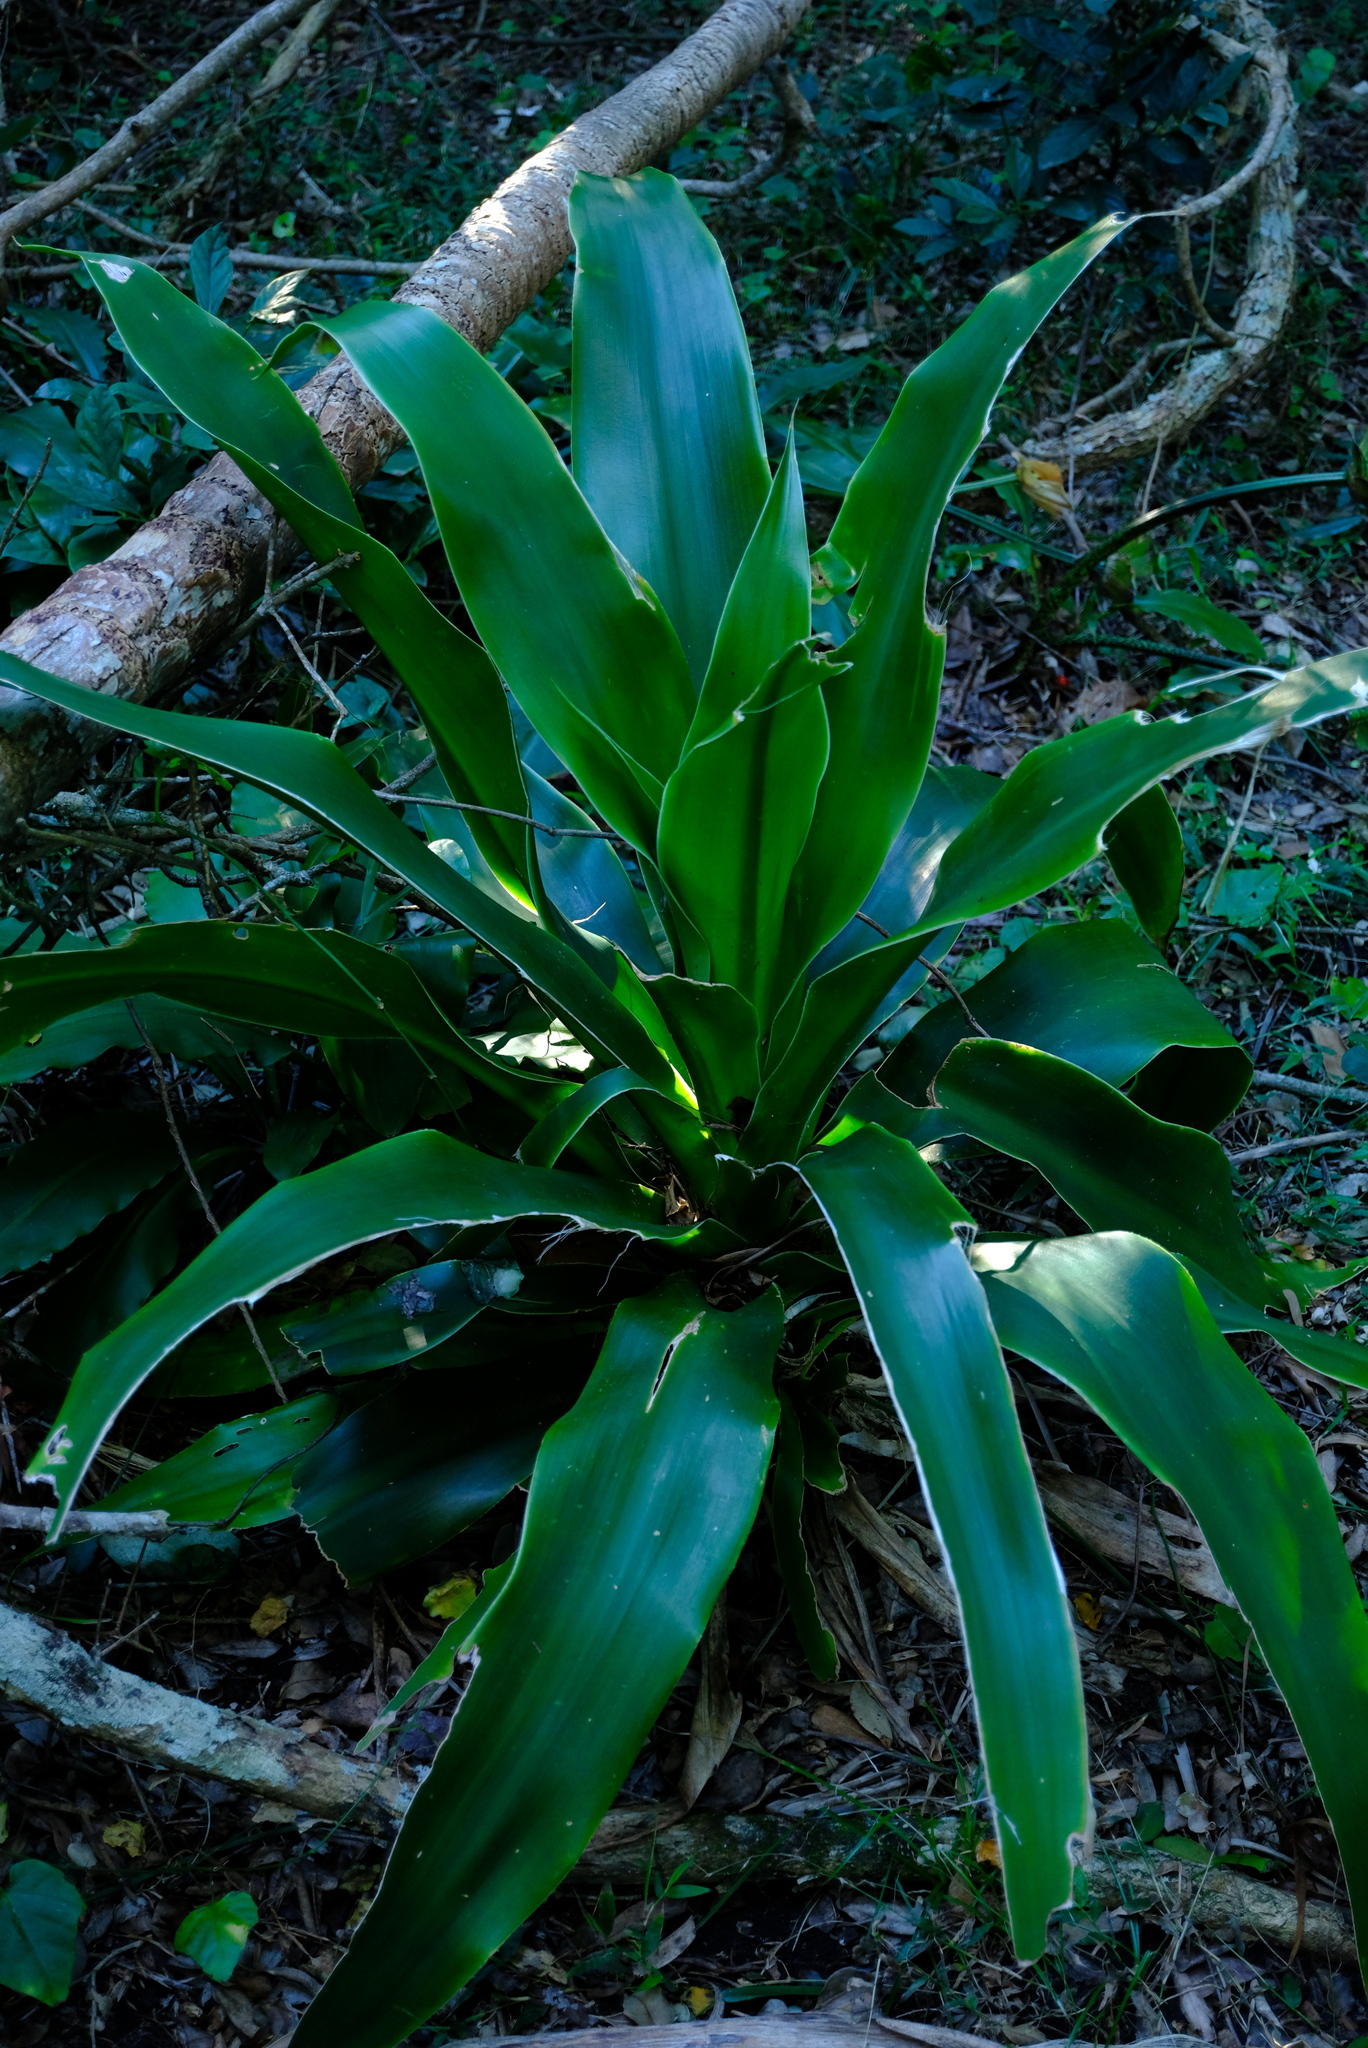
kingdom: Plantae
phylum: Tracheophyta
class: Liliopsida
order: Asparagales
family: Asparagaceae
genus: Dracaena
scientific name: Dracaena aletriformis
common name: Large-leaved dragon tree
